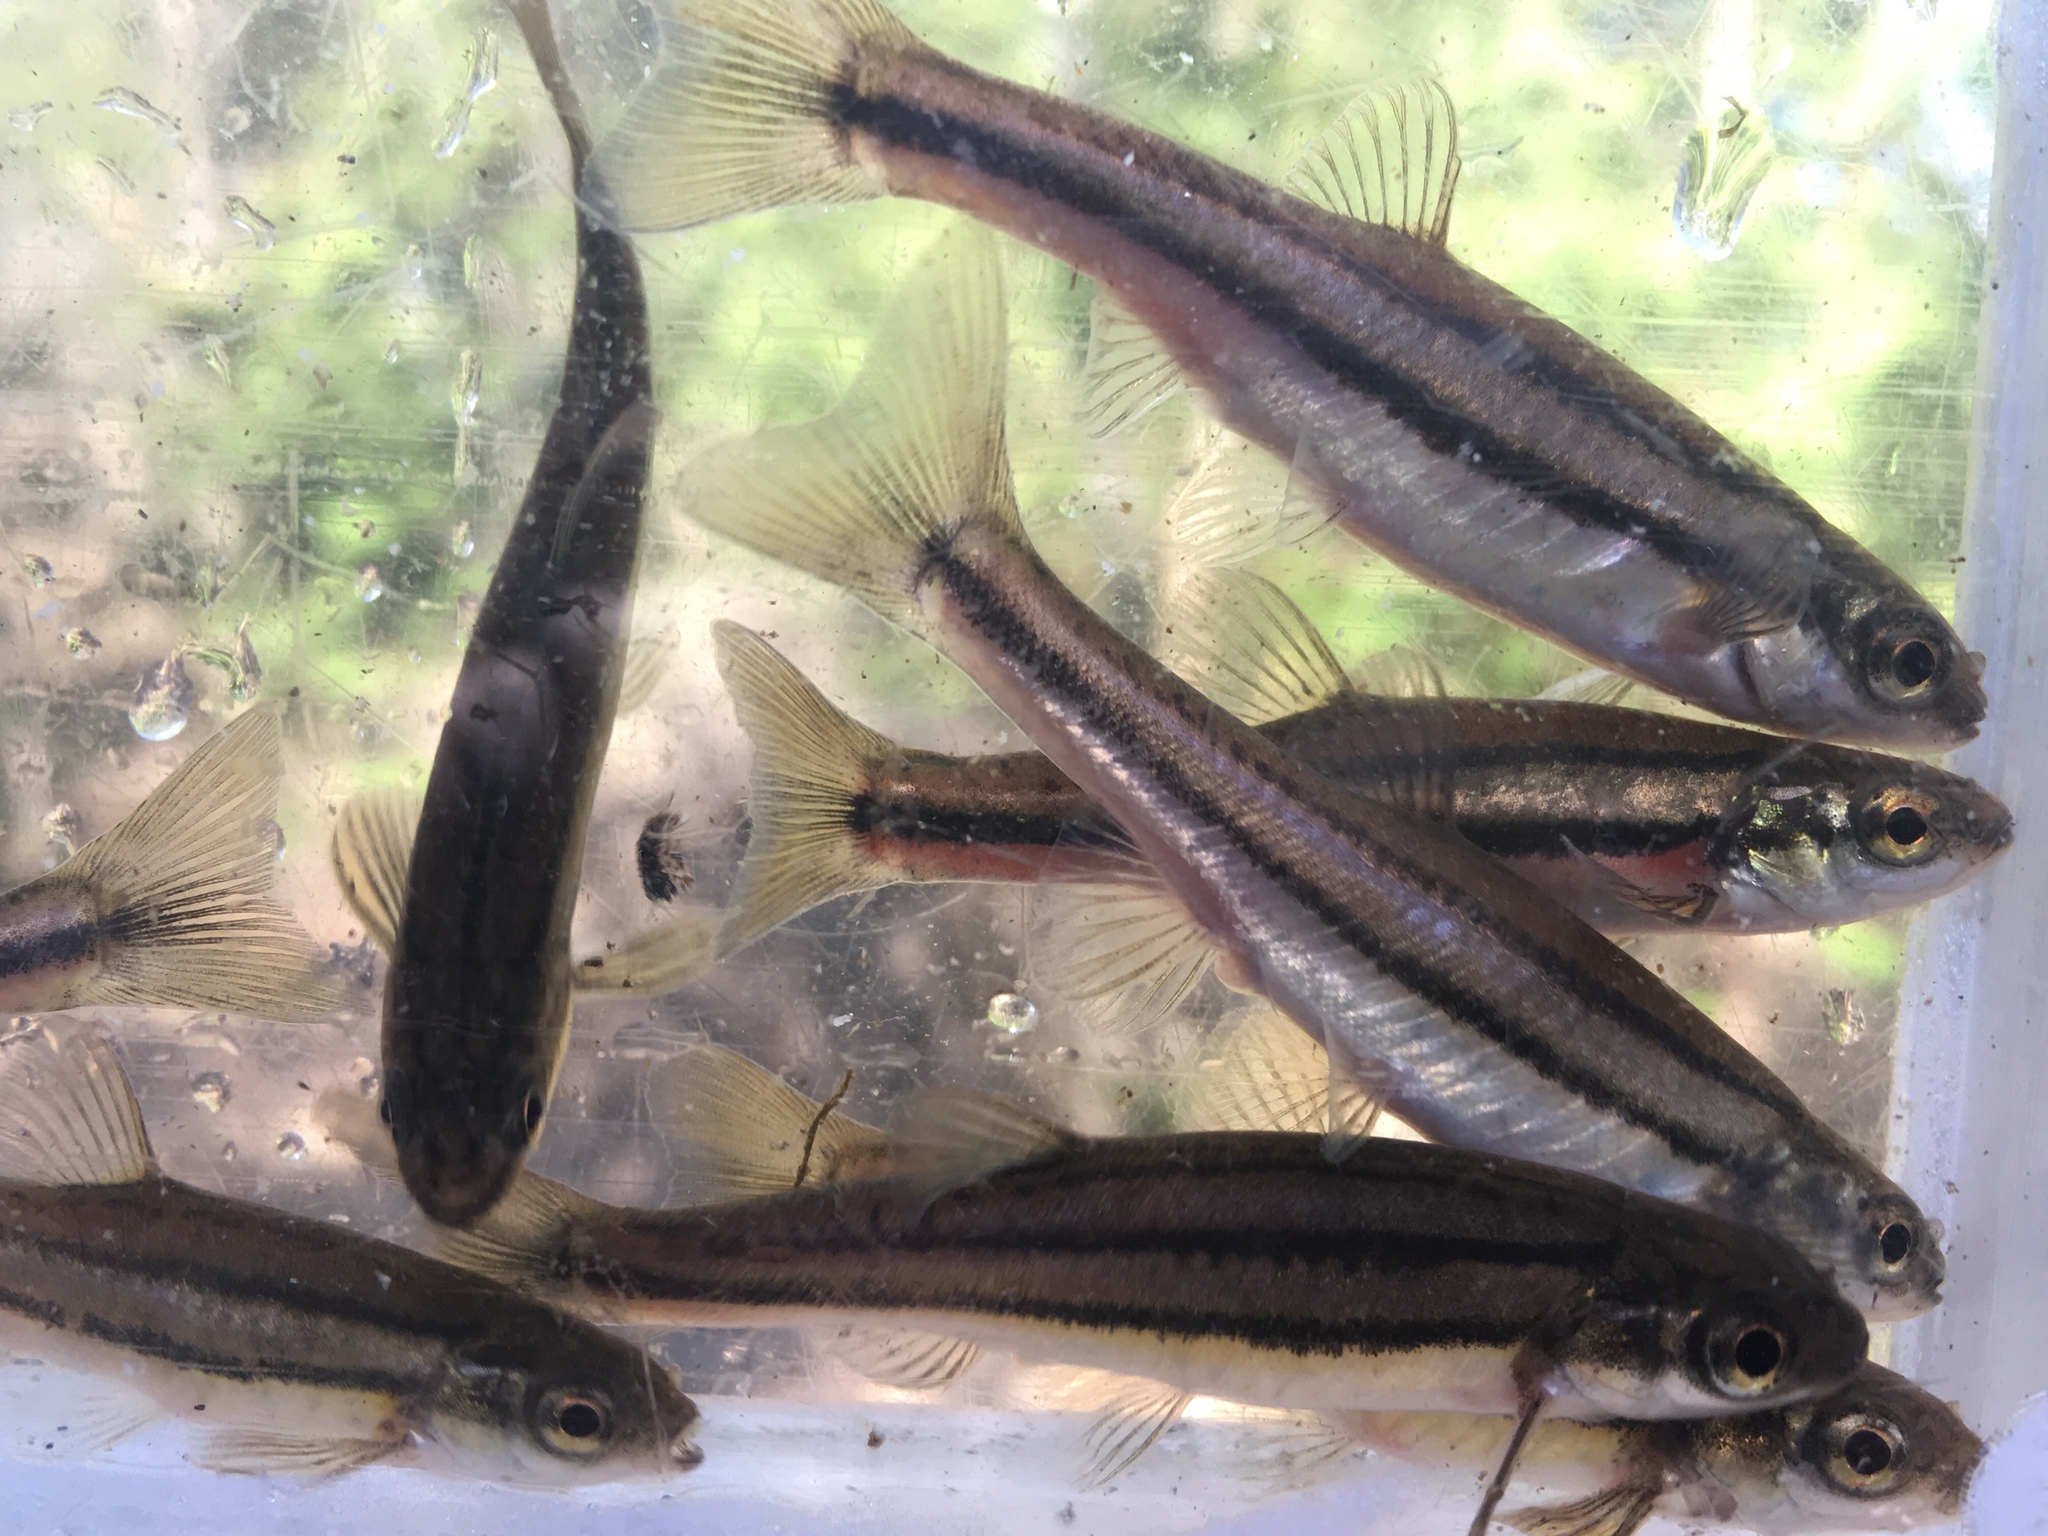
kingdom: Animalia
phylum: Chordata
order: Cypriniformes
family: Cyprinidae
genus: Chrosomus
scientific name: Chrosomus eos
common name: Northern redbelly dace
